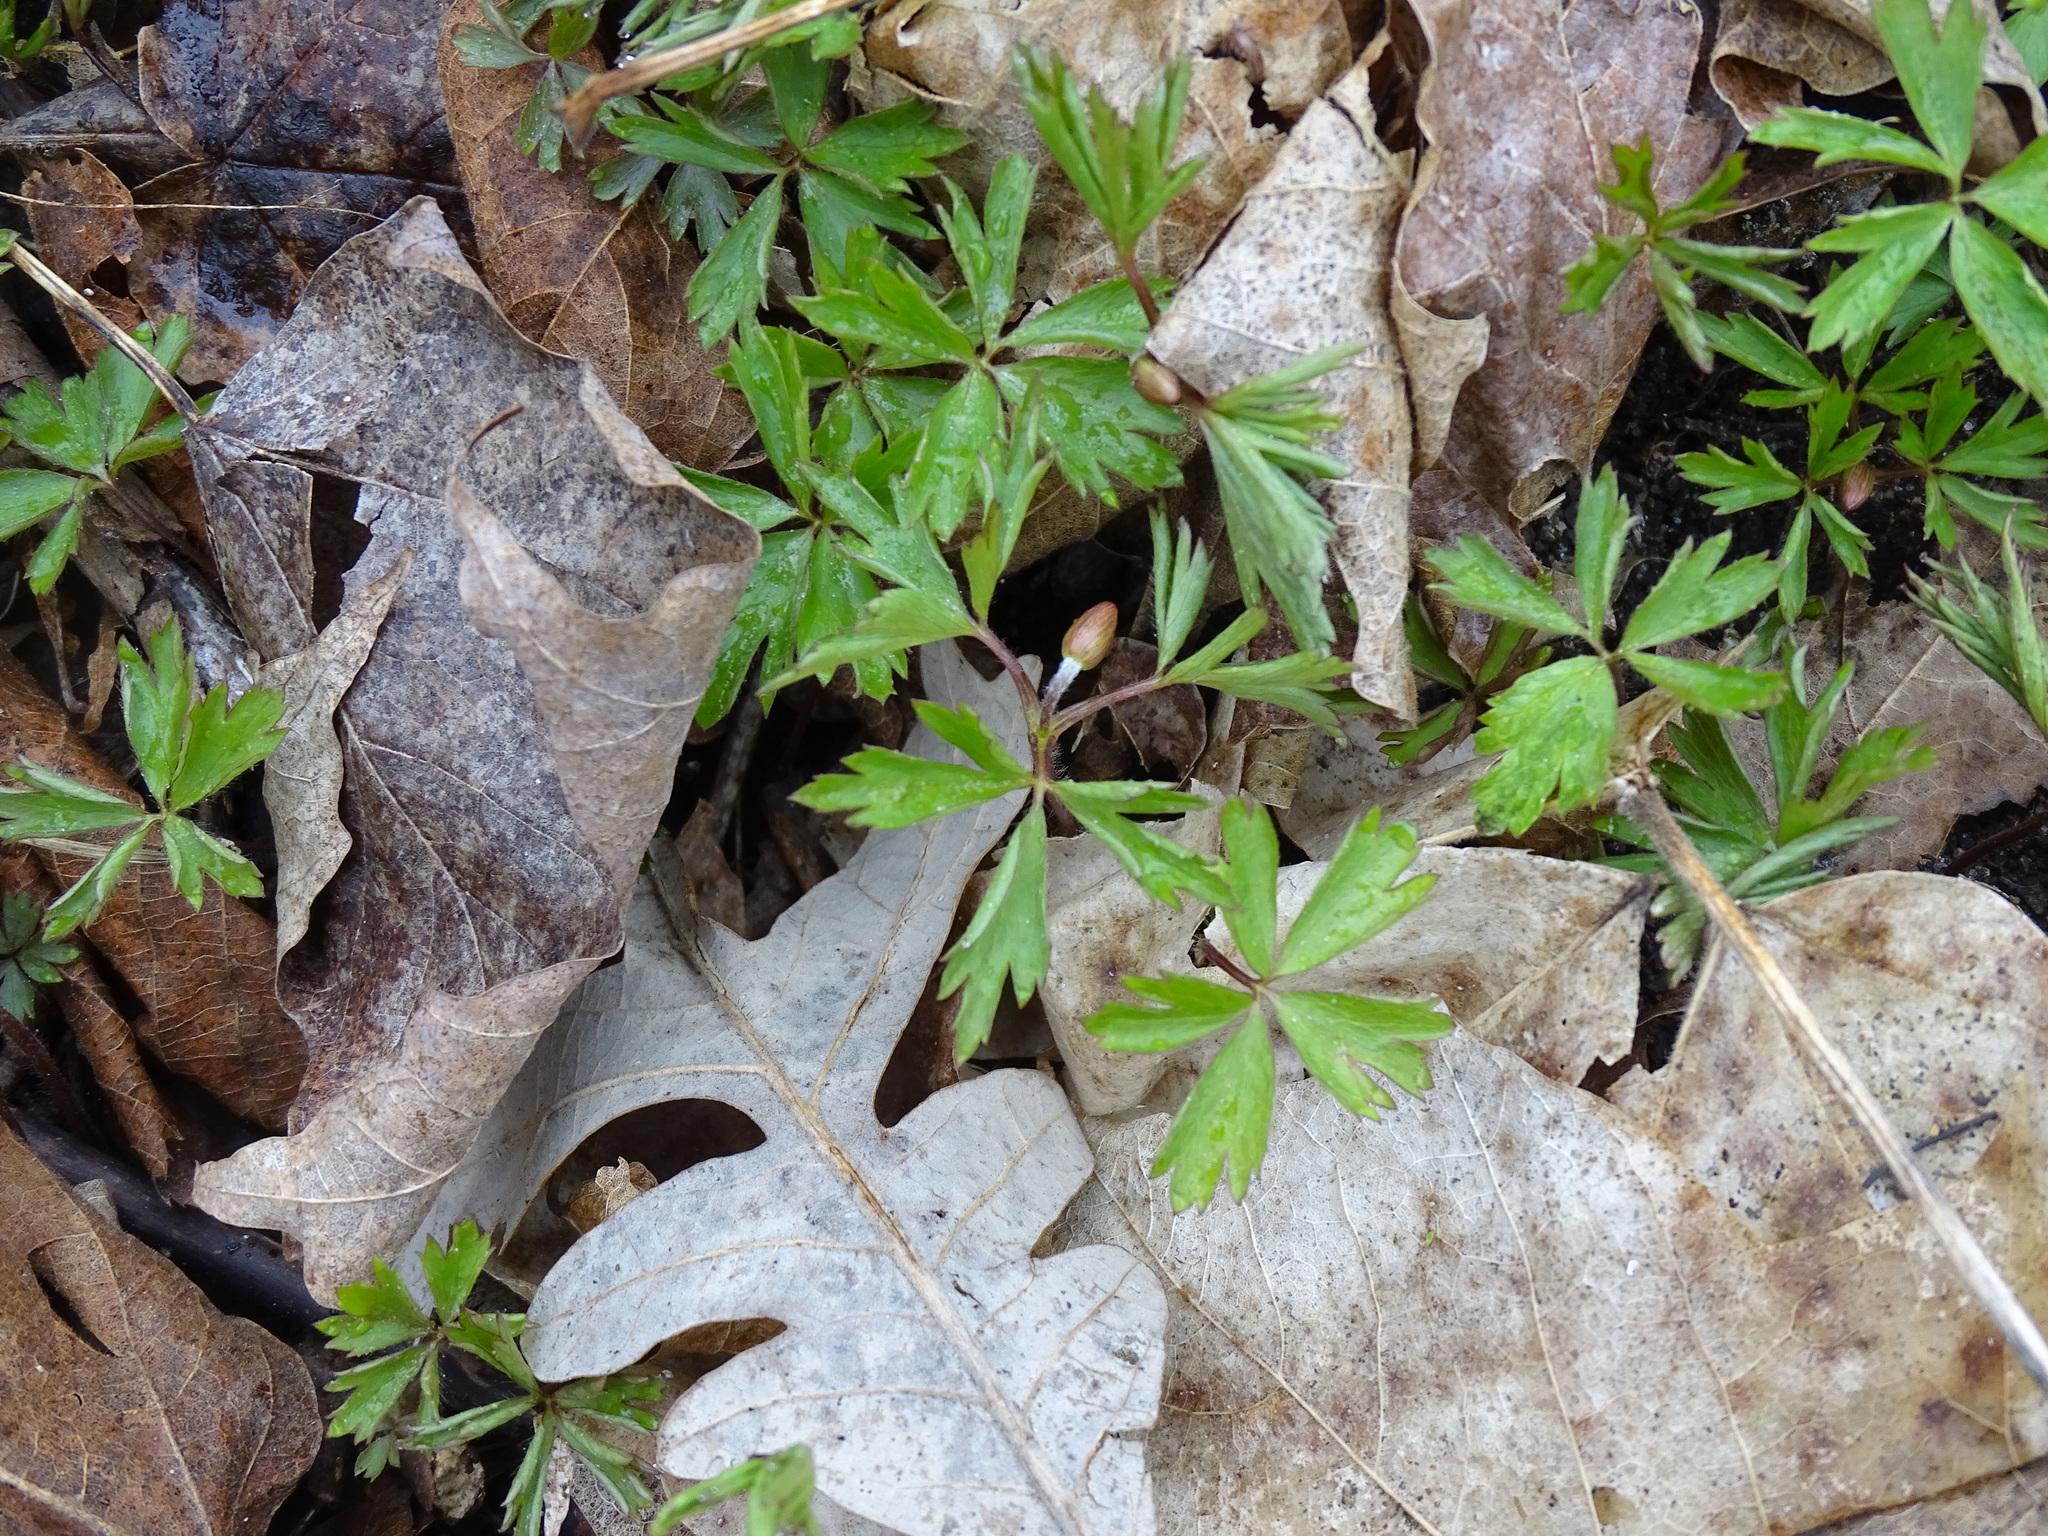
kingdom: Plantae
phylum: Tracheophyta
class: Magnoliopsida
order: Ranunculales
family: Ranunculaceae
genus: Anemone
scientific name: Anemone quinquefolia
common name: Wood anemone
